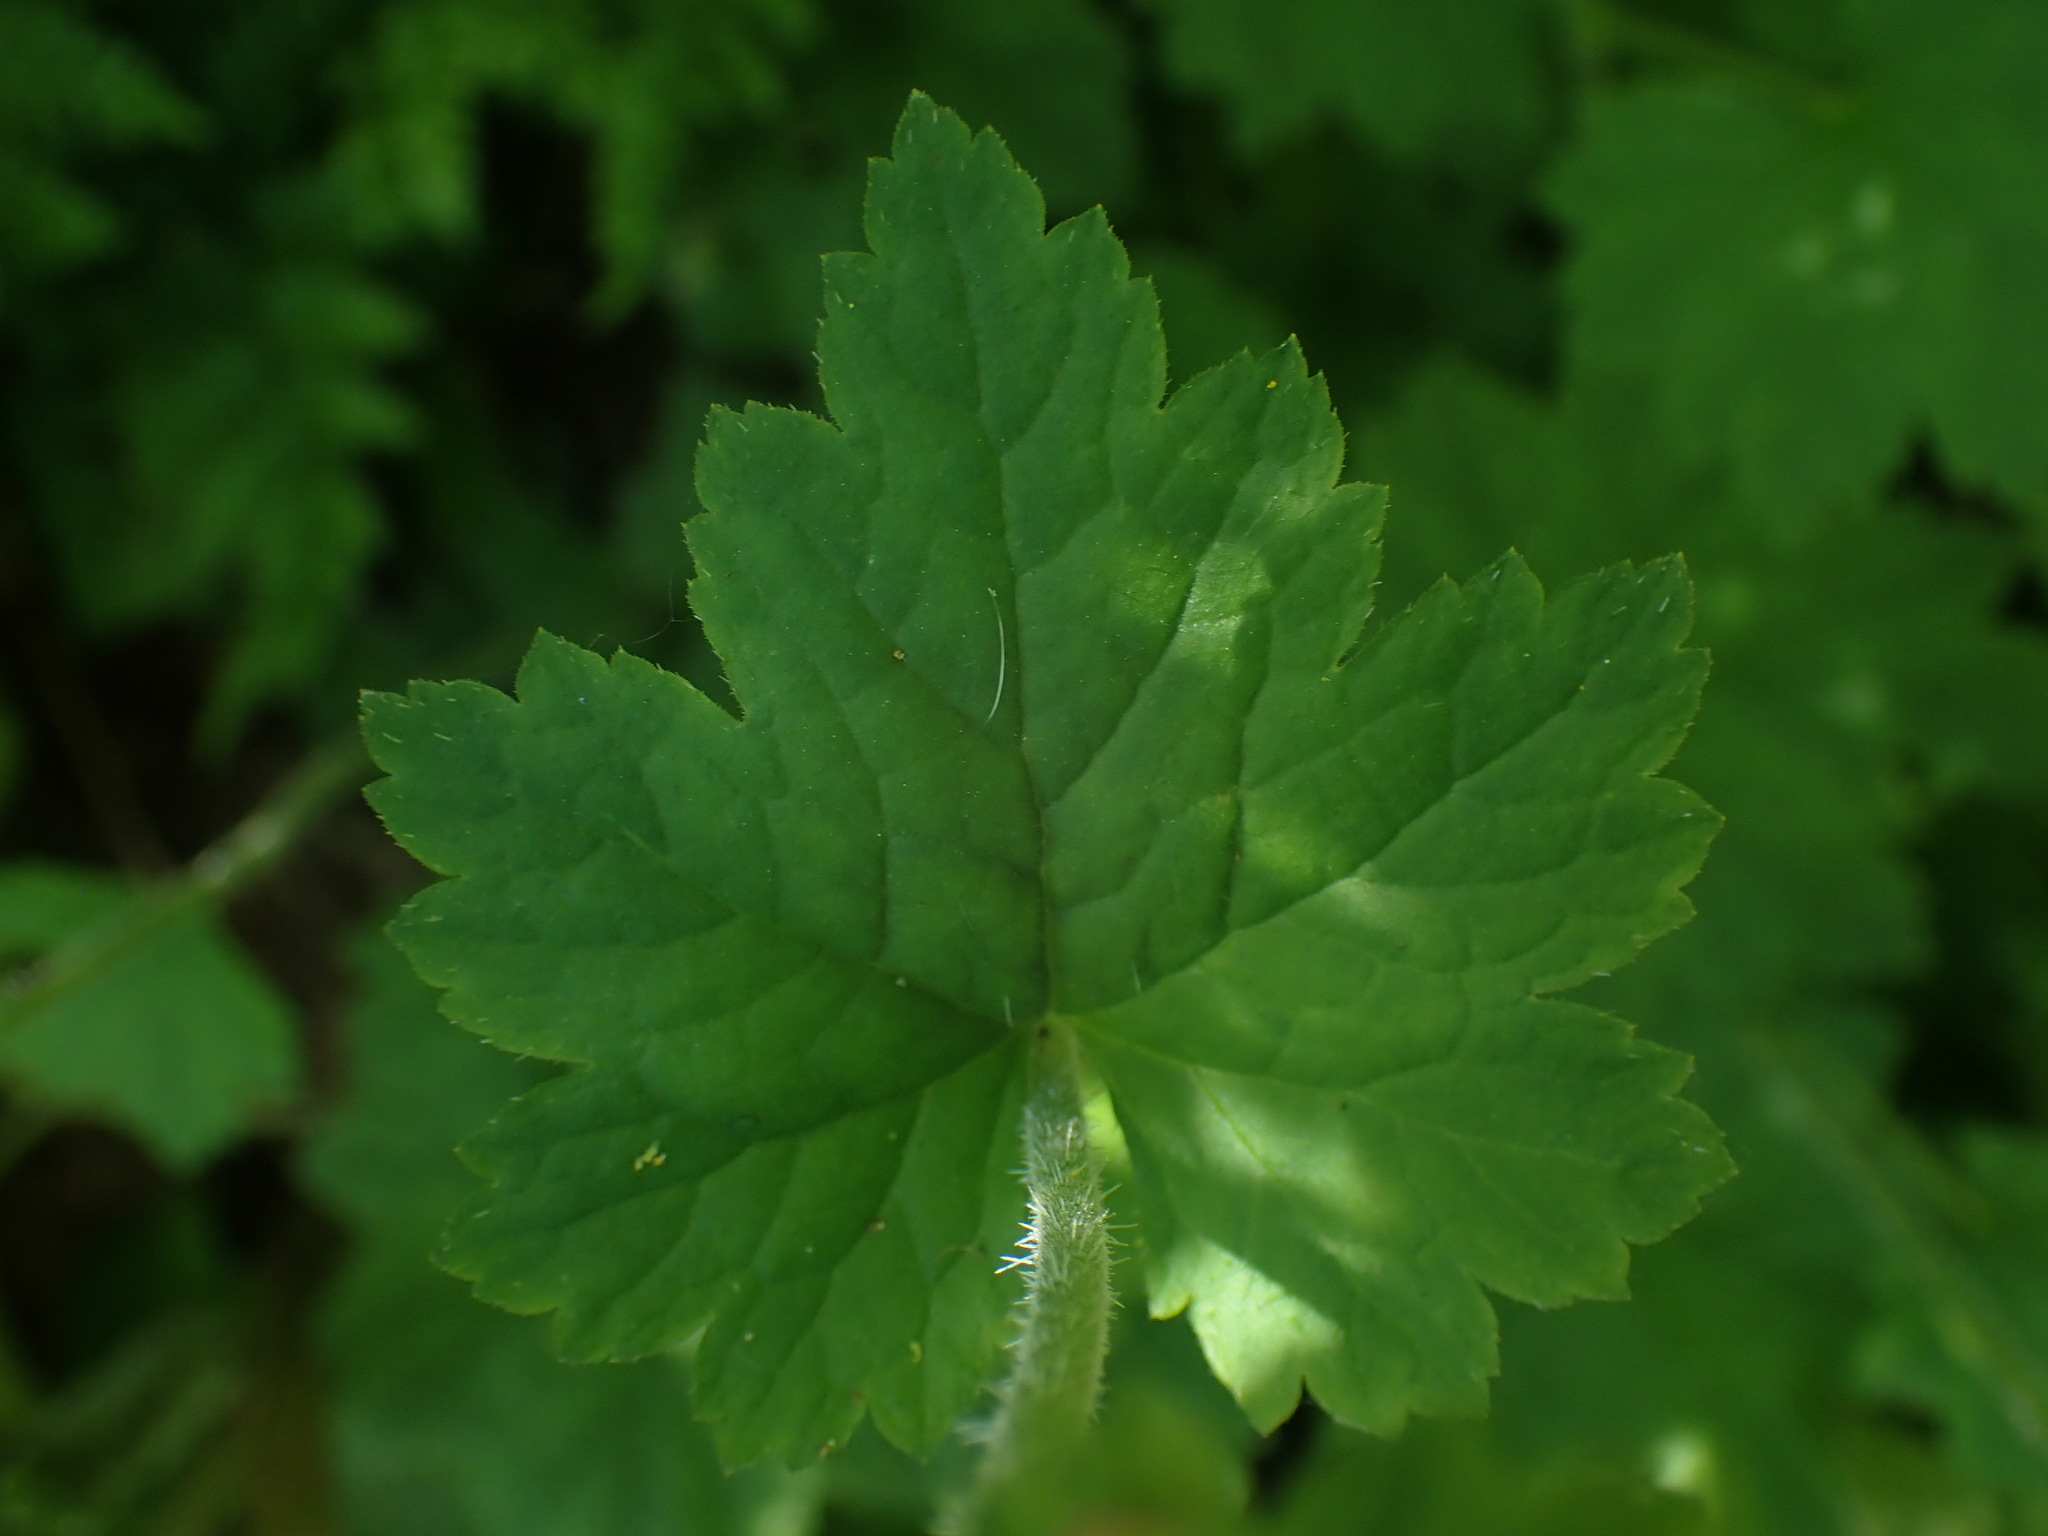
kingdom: Plantae
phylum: Tracheophyta
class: Magnoliopsida
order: Saxifragales
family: Saxifragaceae
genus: Tellima
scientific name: Tellima grandiflora
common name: Fringecups
